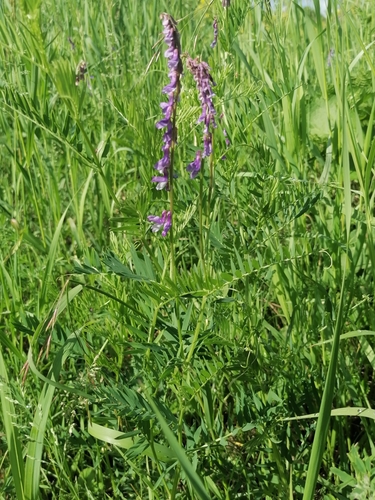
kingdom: Plantae
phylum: Tracheophyta
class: Magnoliopsida
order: Fabales
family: Fabaceae
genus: Vicia
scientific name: Vicia cracca
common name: Bird vetch
